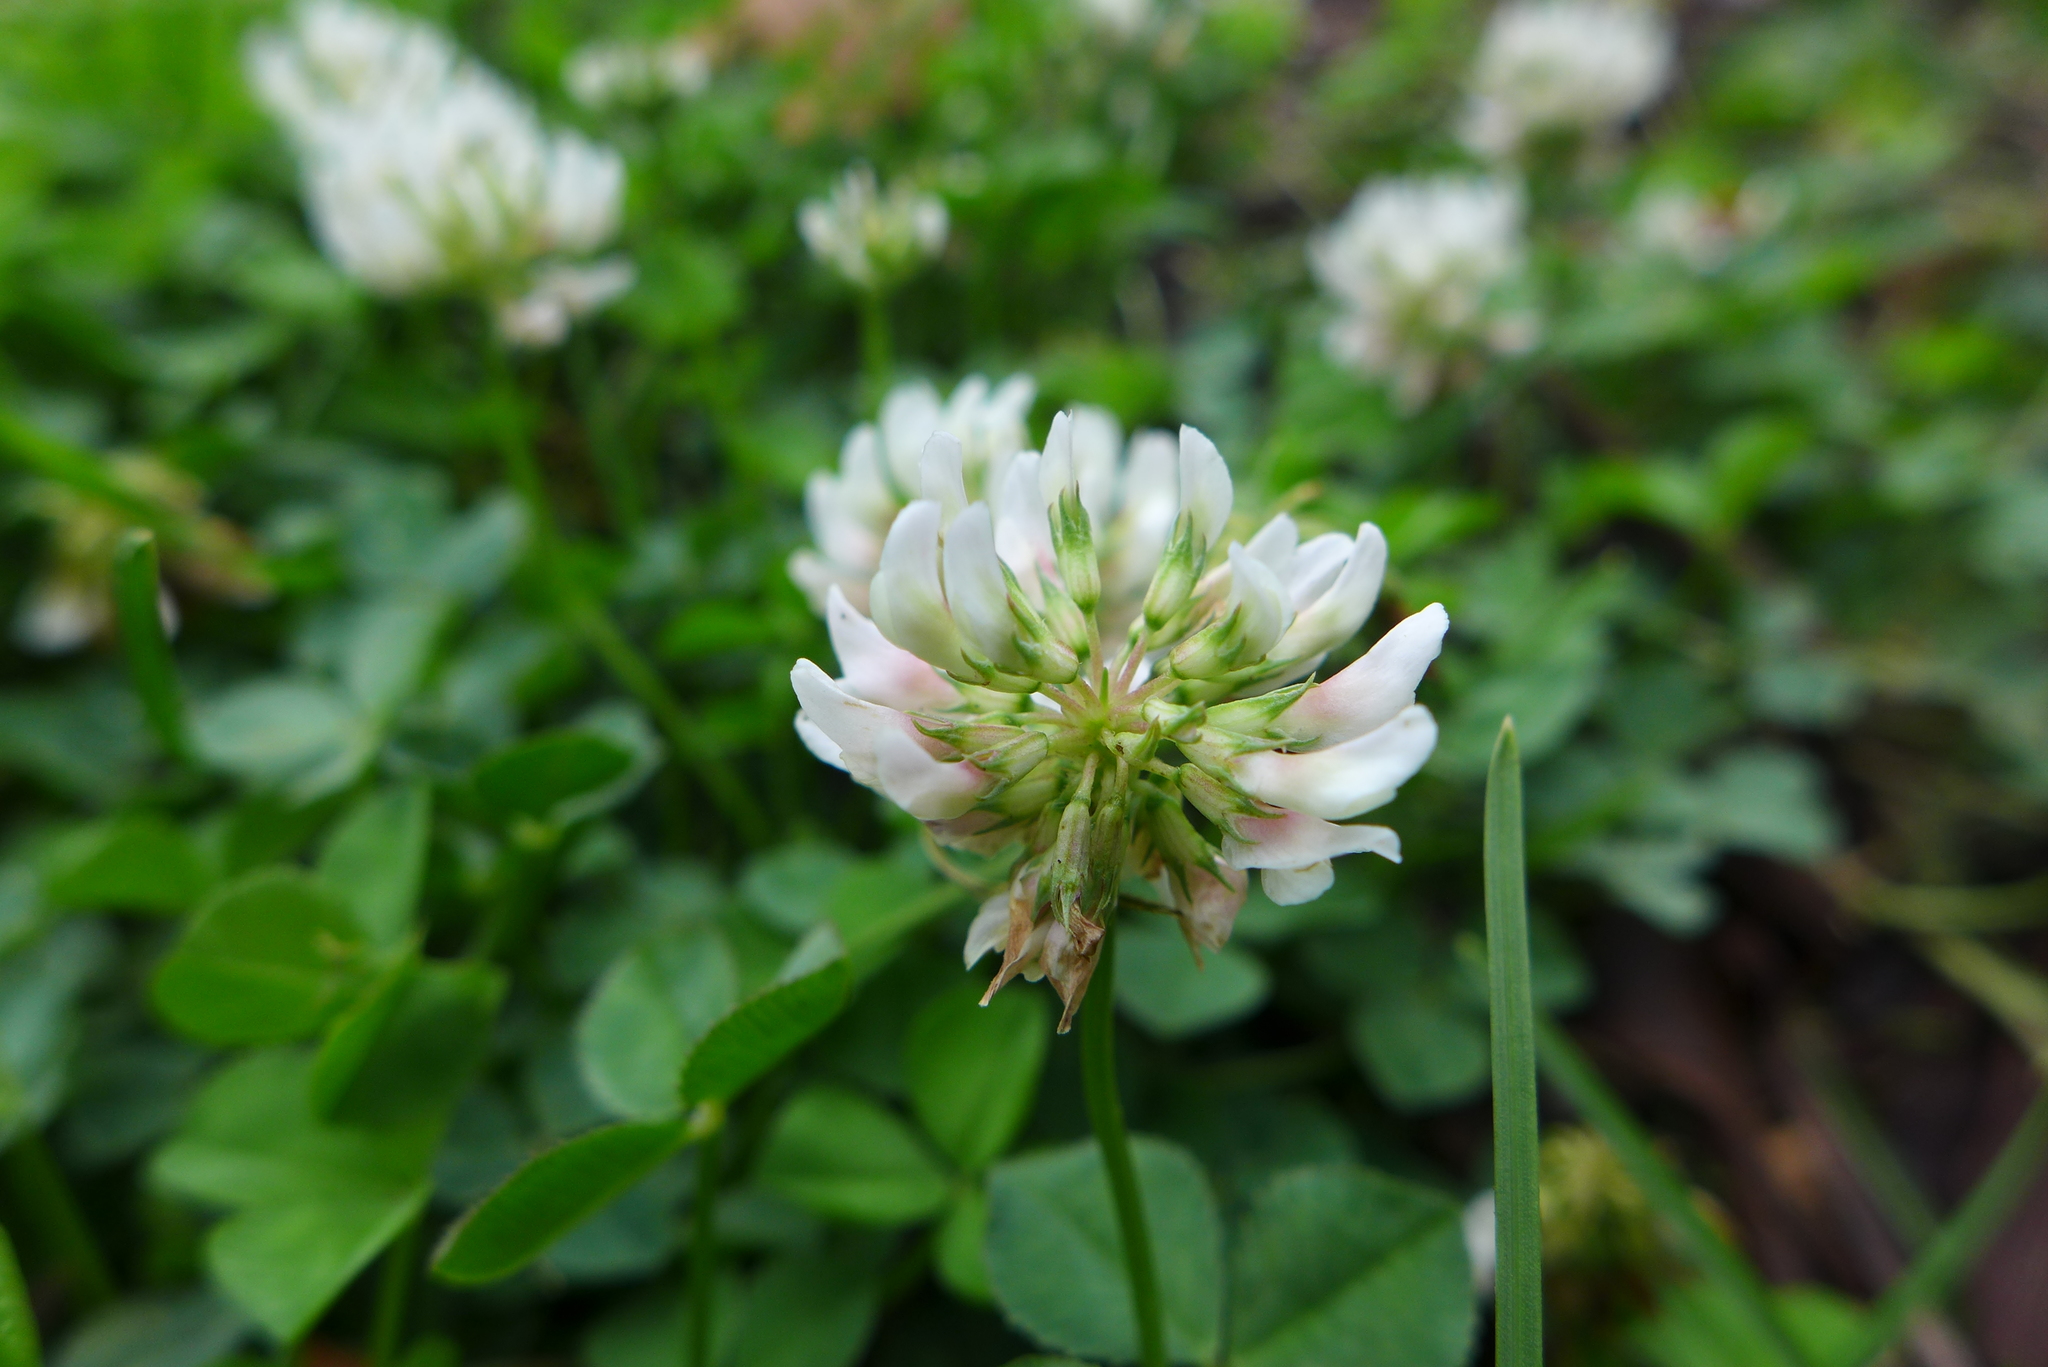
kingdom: Plantae
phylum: Tracheophyta
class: Magnoliopsida
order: Fabales
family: Fabaceae
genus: Trifolium
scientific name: Trifolium repens
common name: White clover
